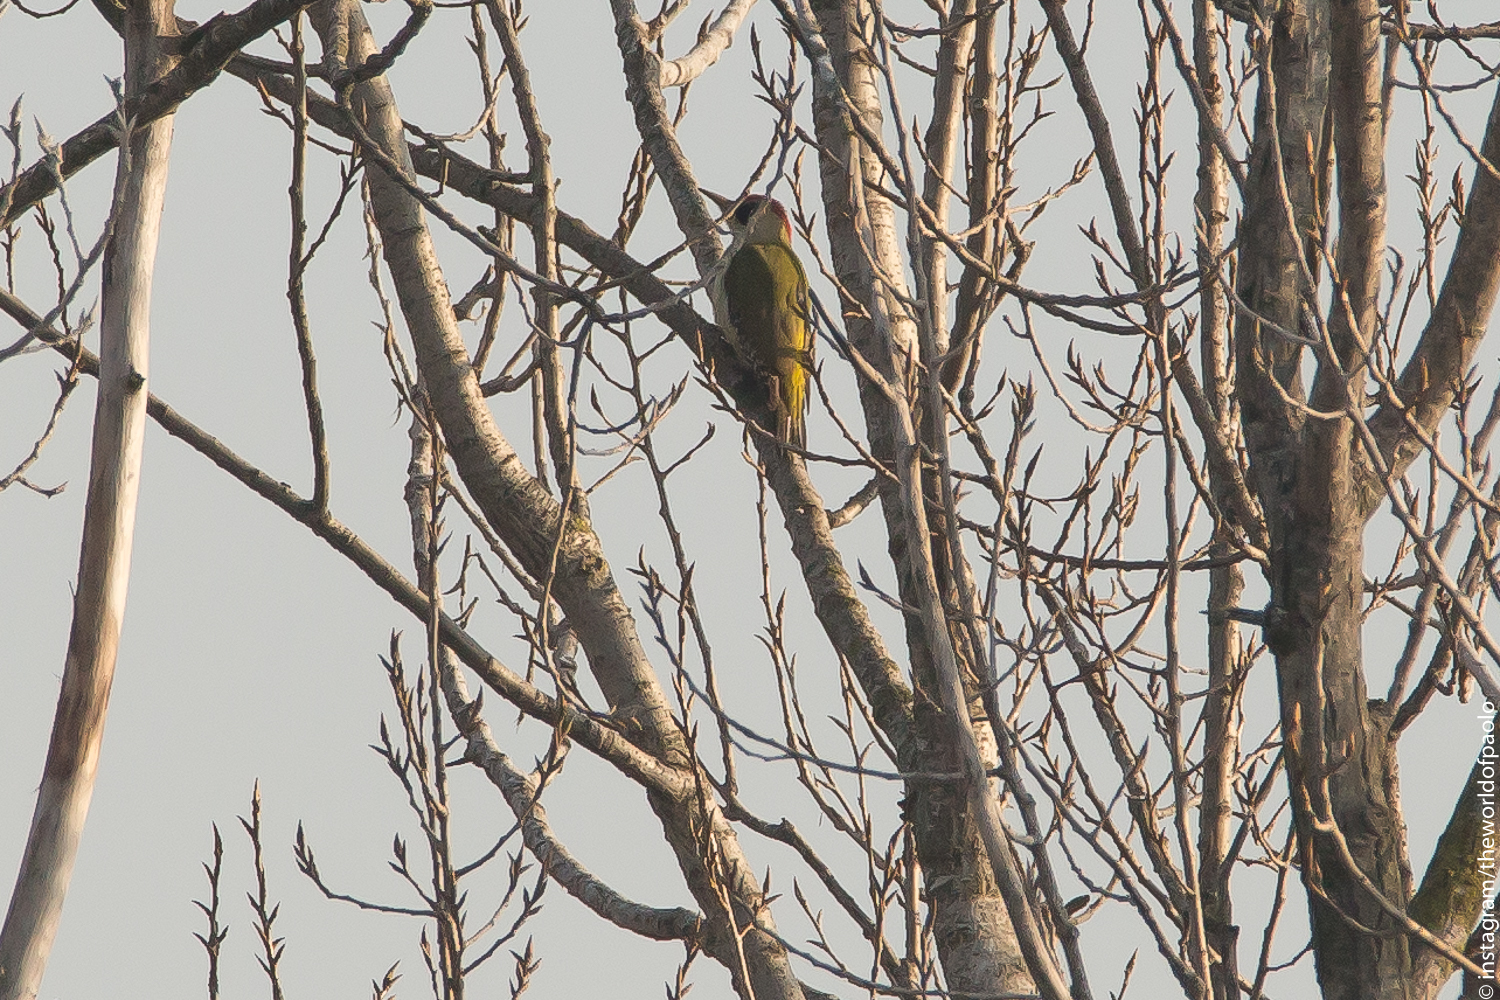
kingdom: Animalia
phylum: Chordata
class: Aves
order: Piciformes
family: Picidae
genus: Picus
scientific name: Picus viridis
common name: European green woodpecker
